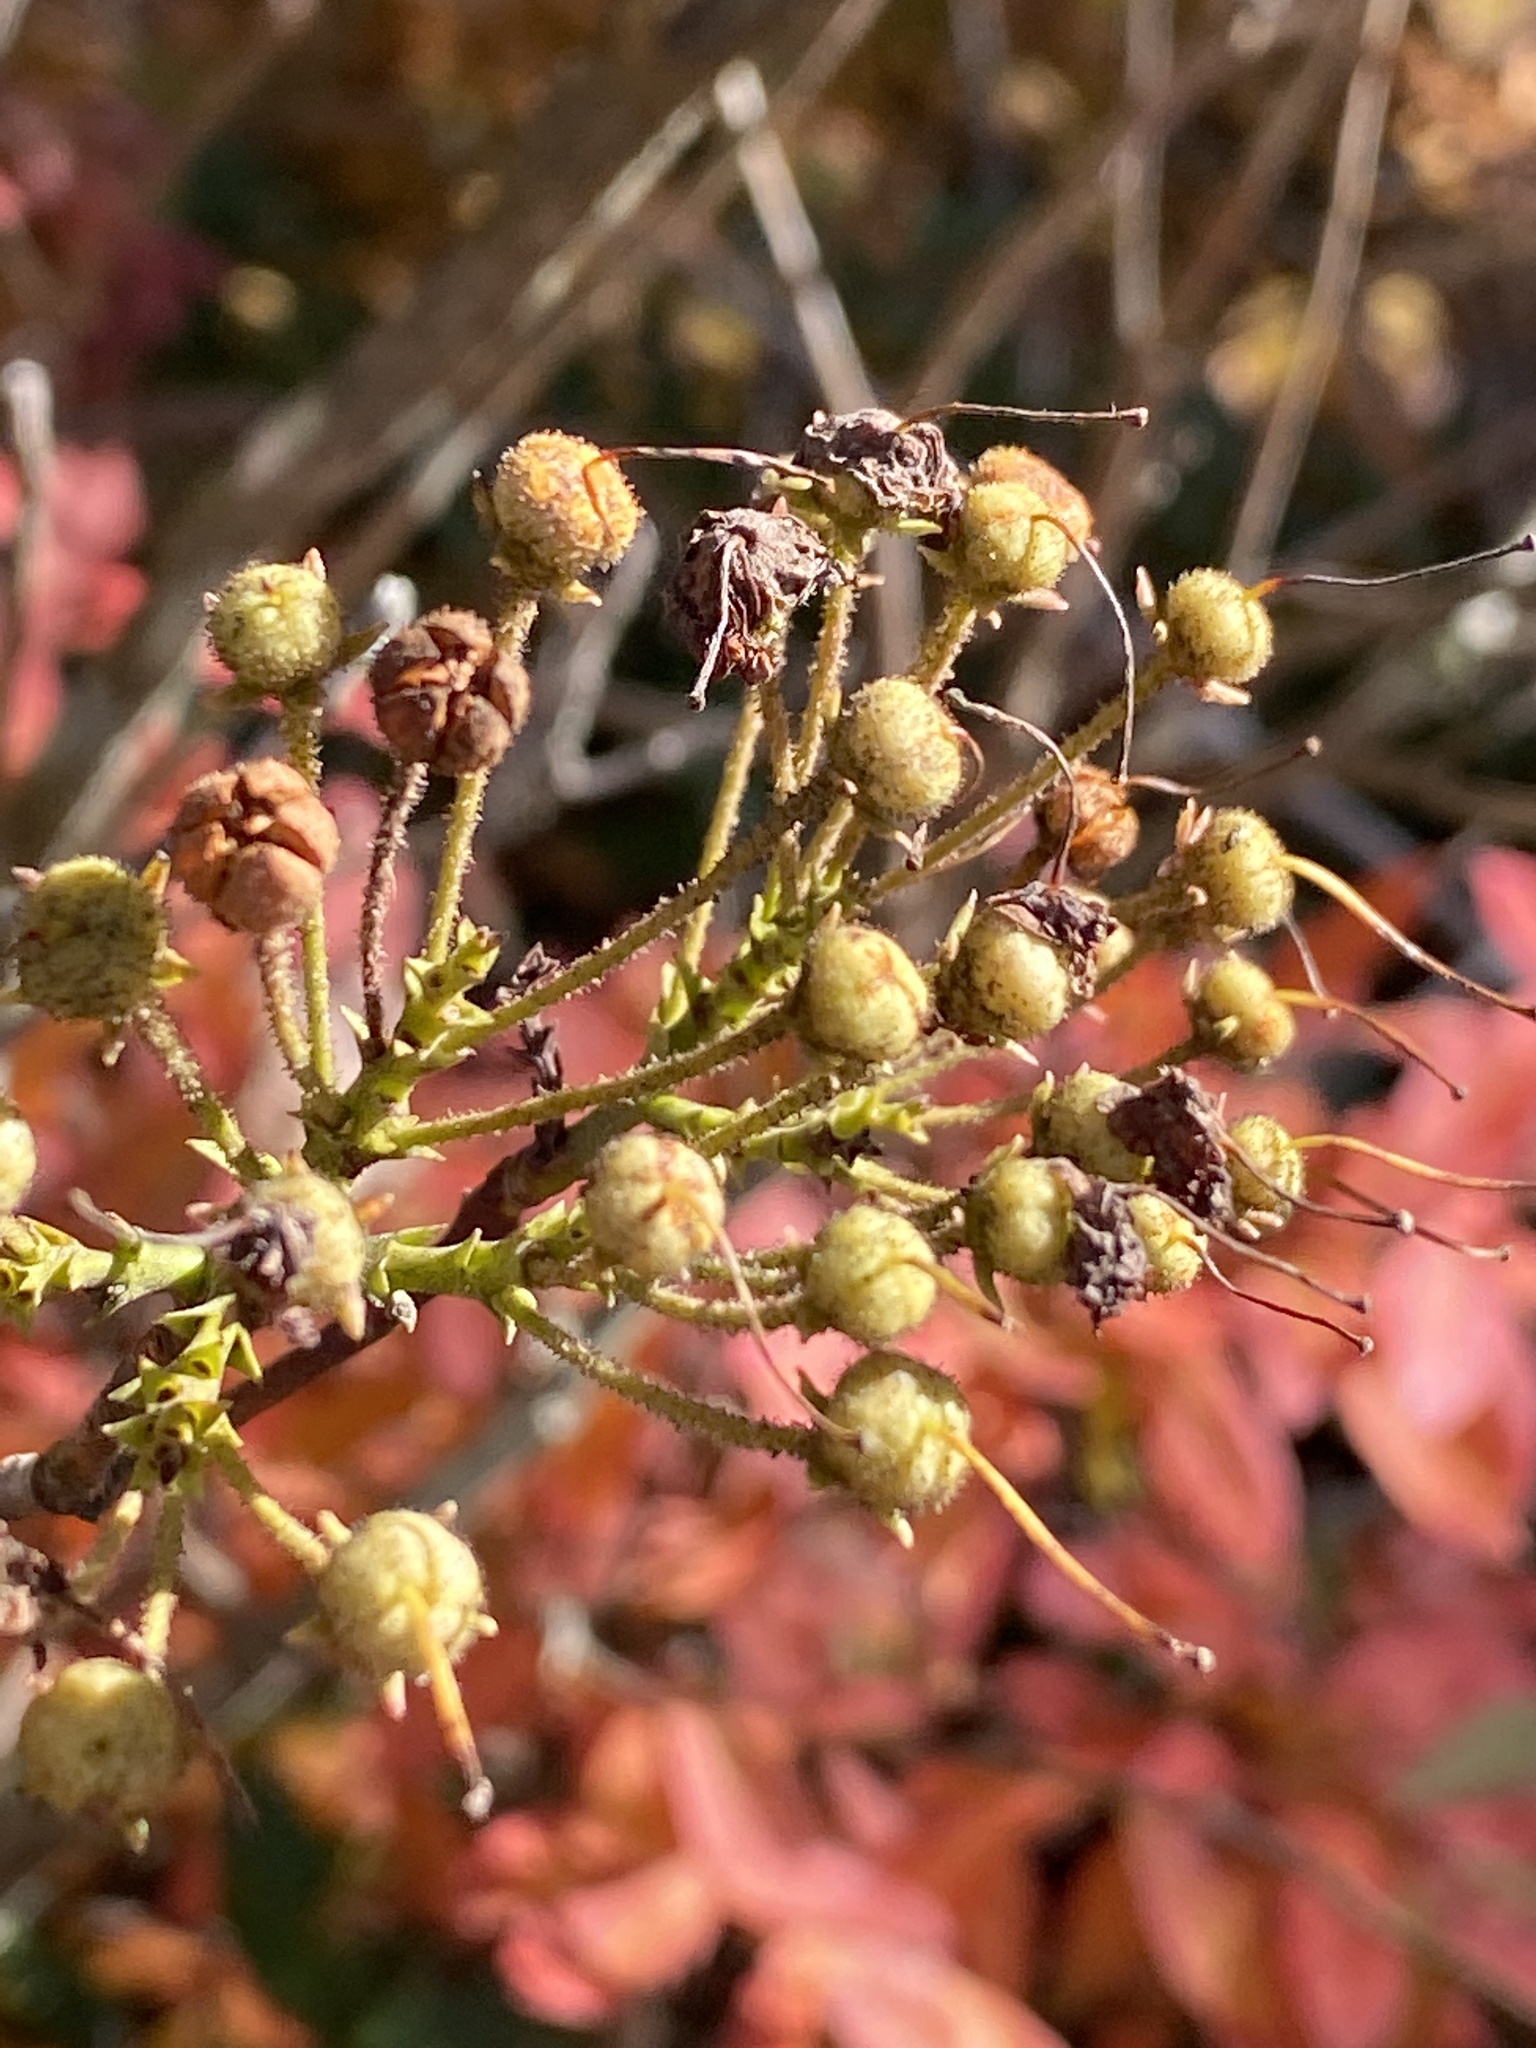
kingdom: Plantae
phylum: Tracheophyta
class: Magnoliopsida
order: Ericales
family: Ericaceae
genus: Kalmia
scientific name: Kalmia latifolia
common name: Mountain-laurel
